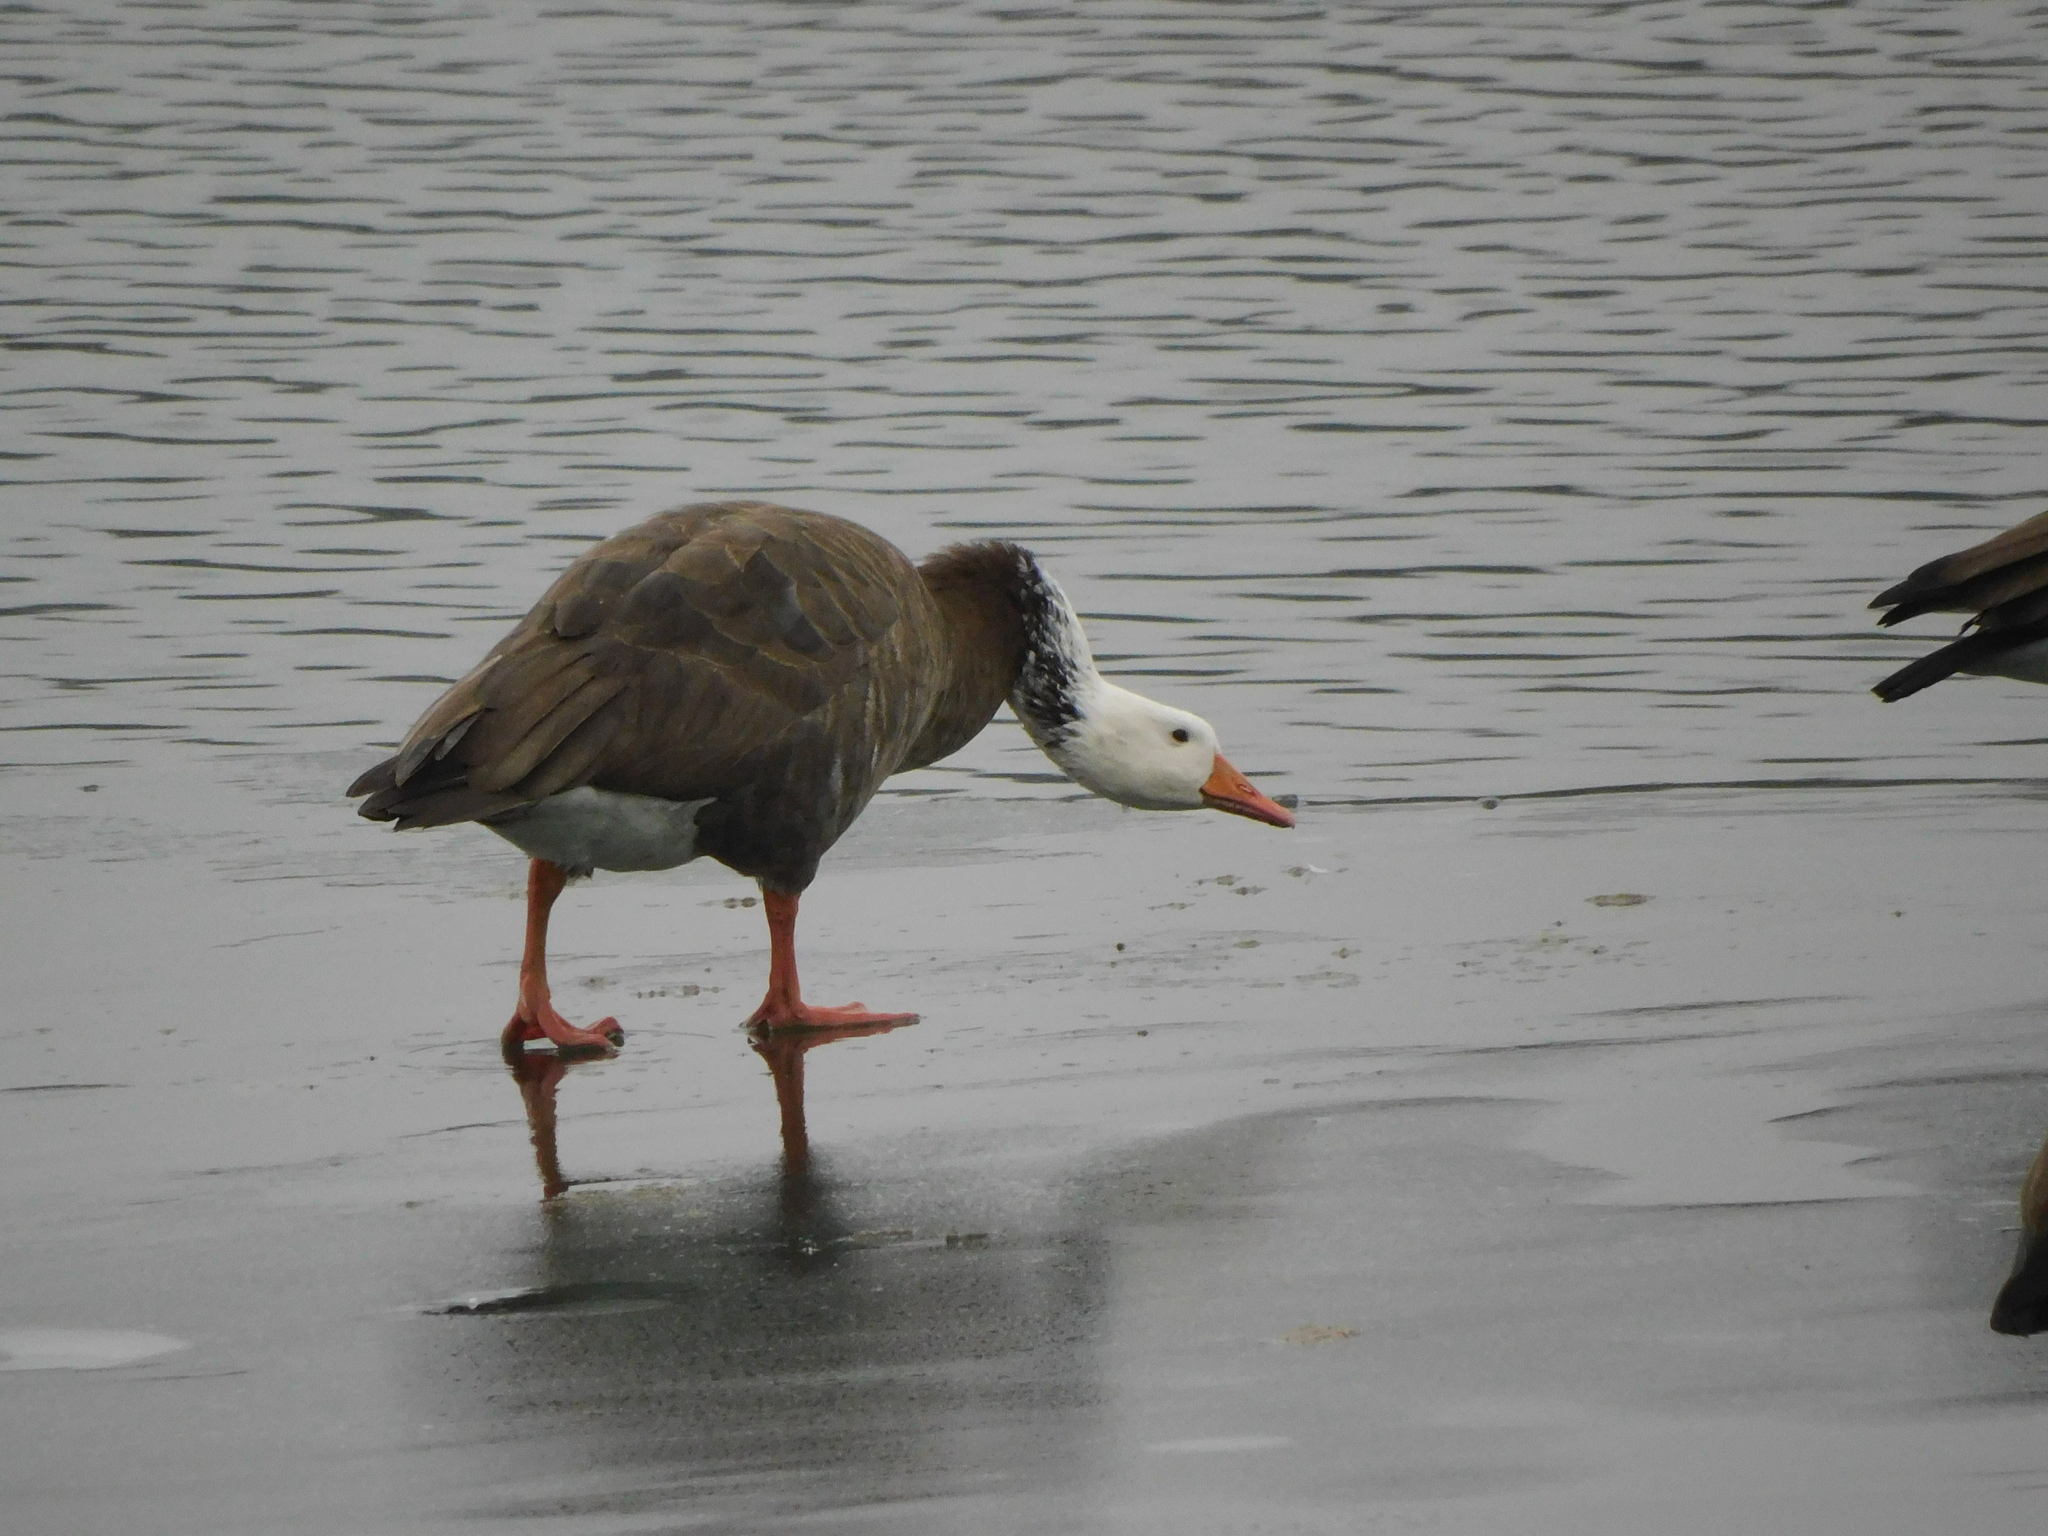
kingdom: Animalia
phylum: Chordata
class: Aves
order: Anseriformes
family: Anatidae
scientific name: Anatidae
